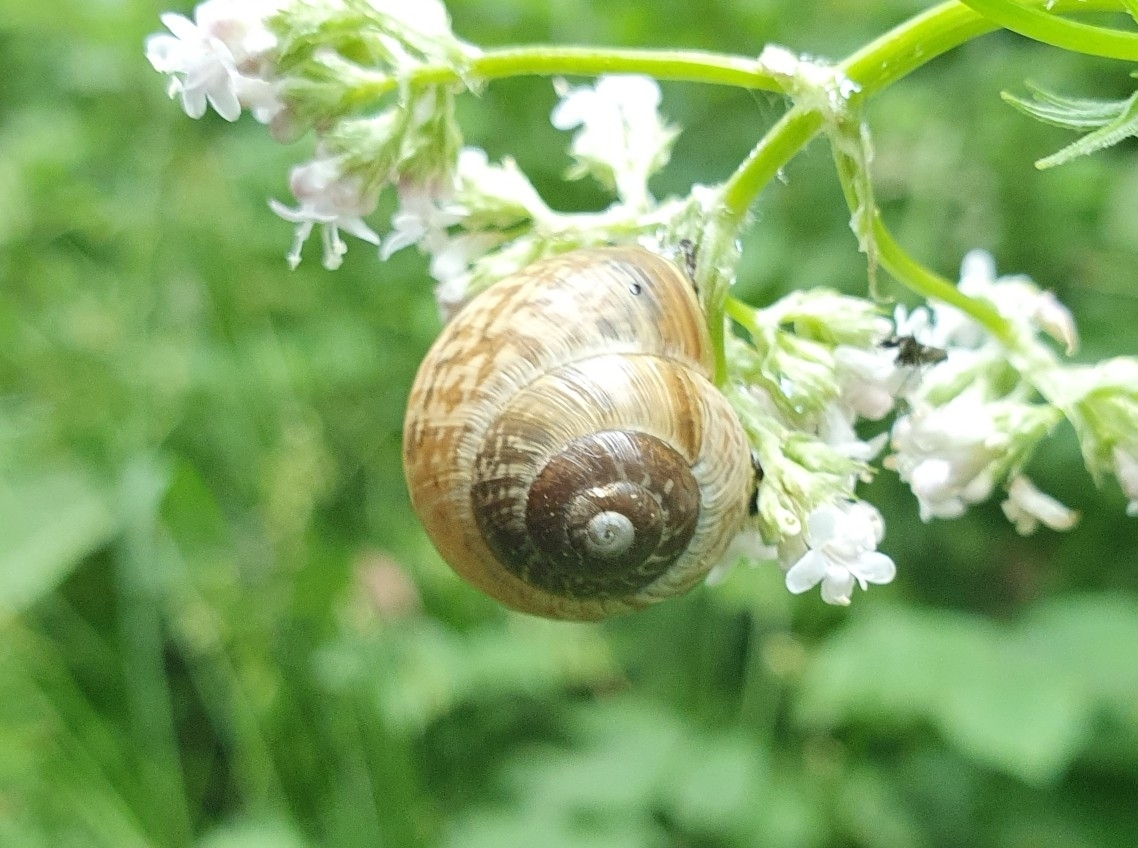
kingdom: Animalia
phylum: Mollusca
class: Gastropoda
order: Stylommatophora
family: Helicidae
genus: Arianta
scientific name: Arianta arbustorum
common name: Copse snail
